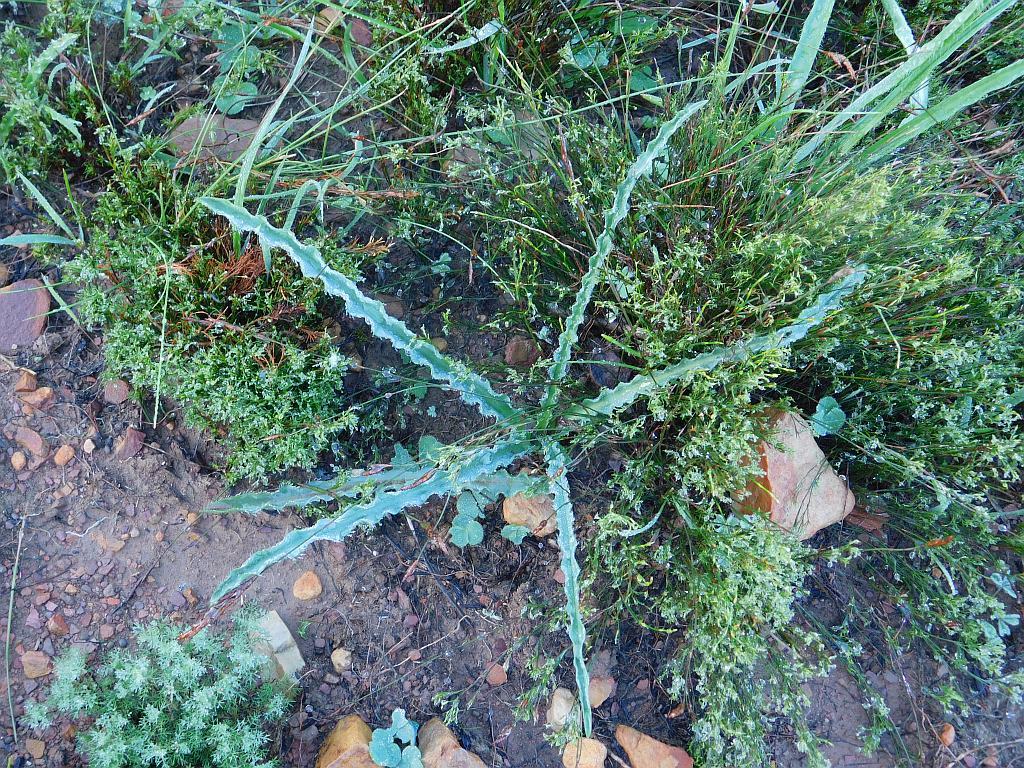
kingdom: Plantae
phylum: Tracheophyta
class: Liliopsida
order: Asparagales
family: Asparagaceae
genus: Drimia
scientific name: Drimia elata
